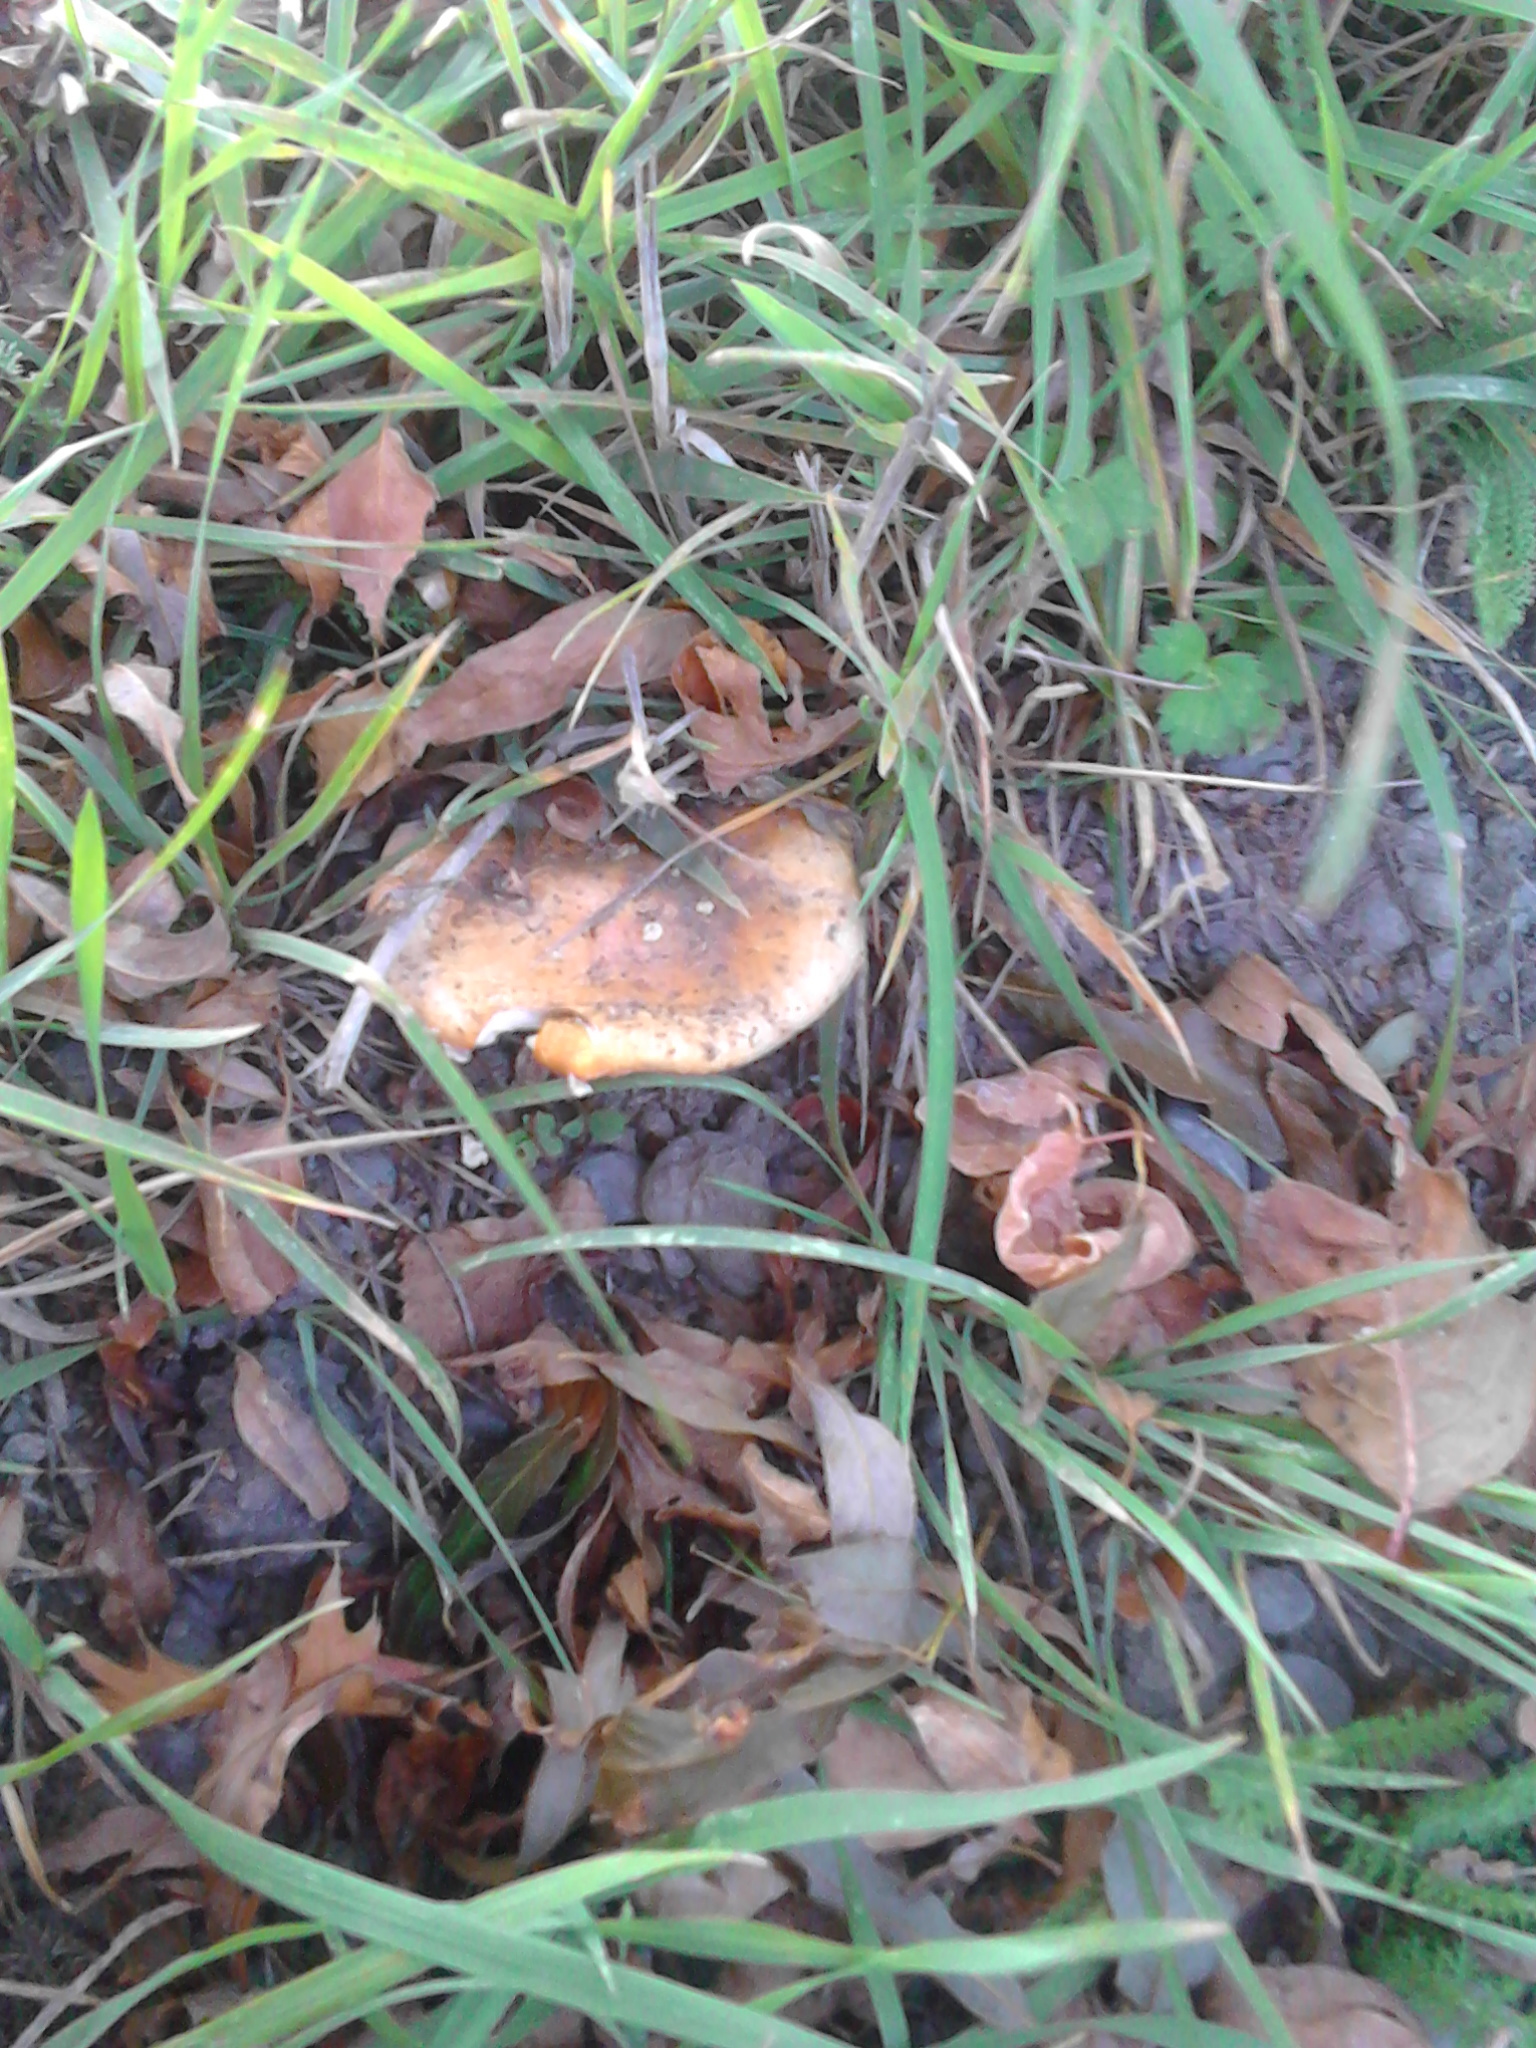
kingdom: Fungi
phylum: Basidiomycota
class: Agaricomycetes
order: Agaricales
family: Amanitaceae
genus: Amanita
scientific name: Amanita muscaria
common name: Fly agaric
